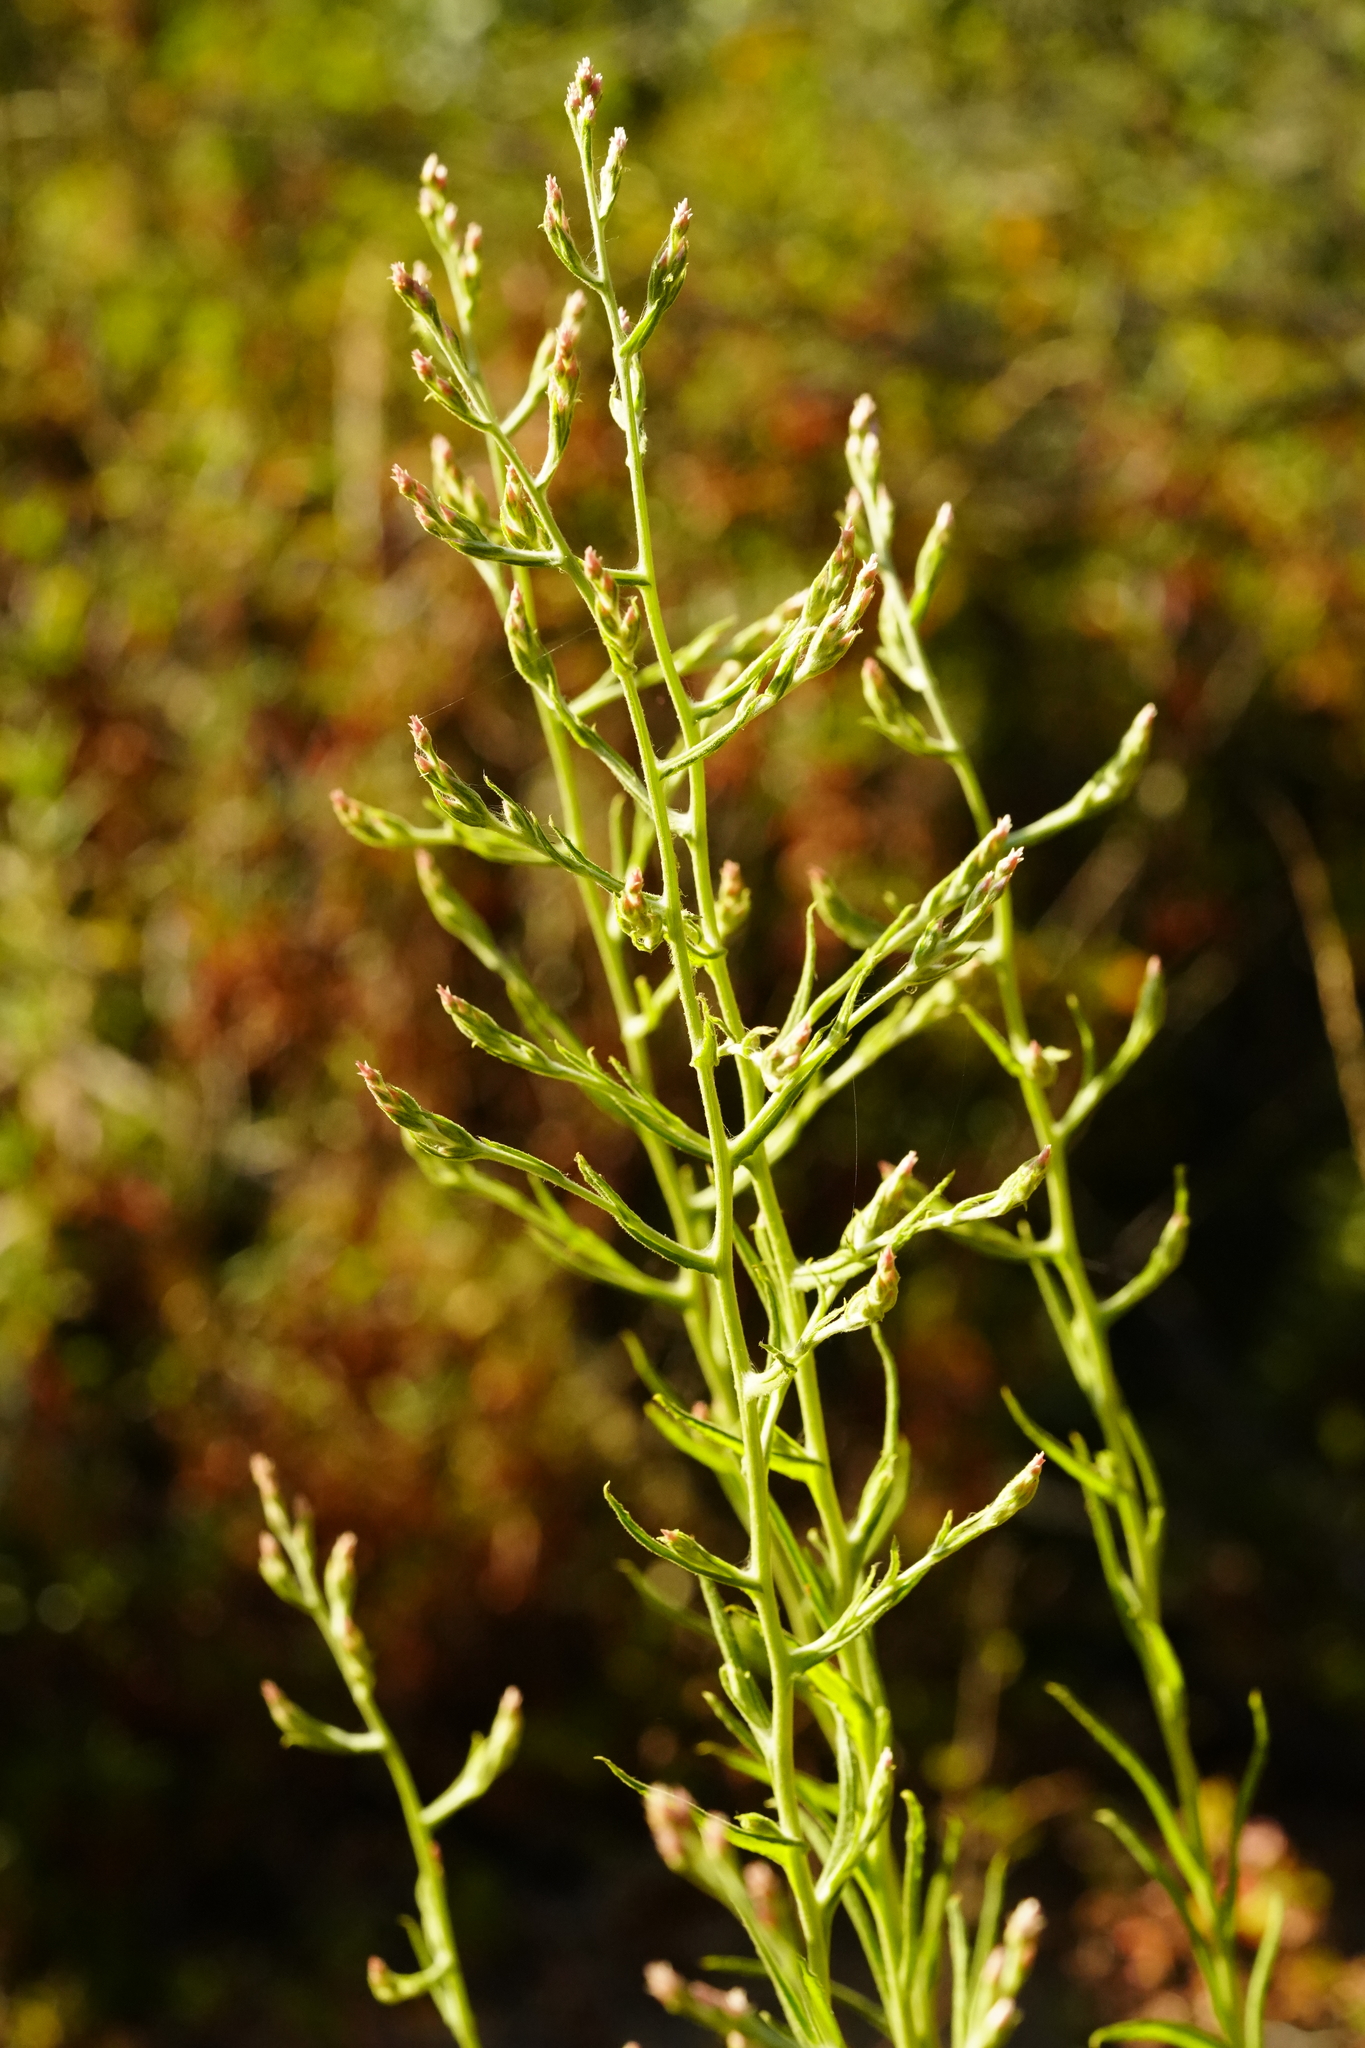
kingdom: Plantae
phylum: Tracheophyta
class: Magnoliopsida
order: Asterales
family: Asteraceae
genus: Pseudognaphalium
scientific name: Pseudognaphalium ramosissimum
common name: Pink rabbit-tobacco
